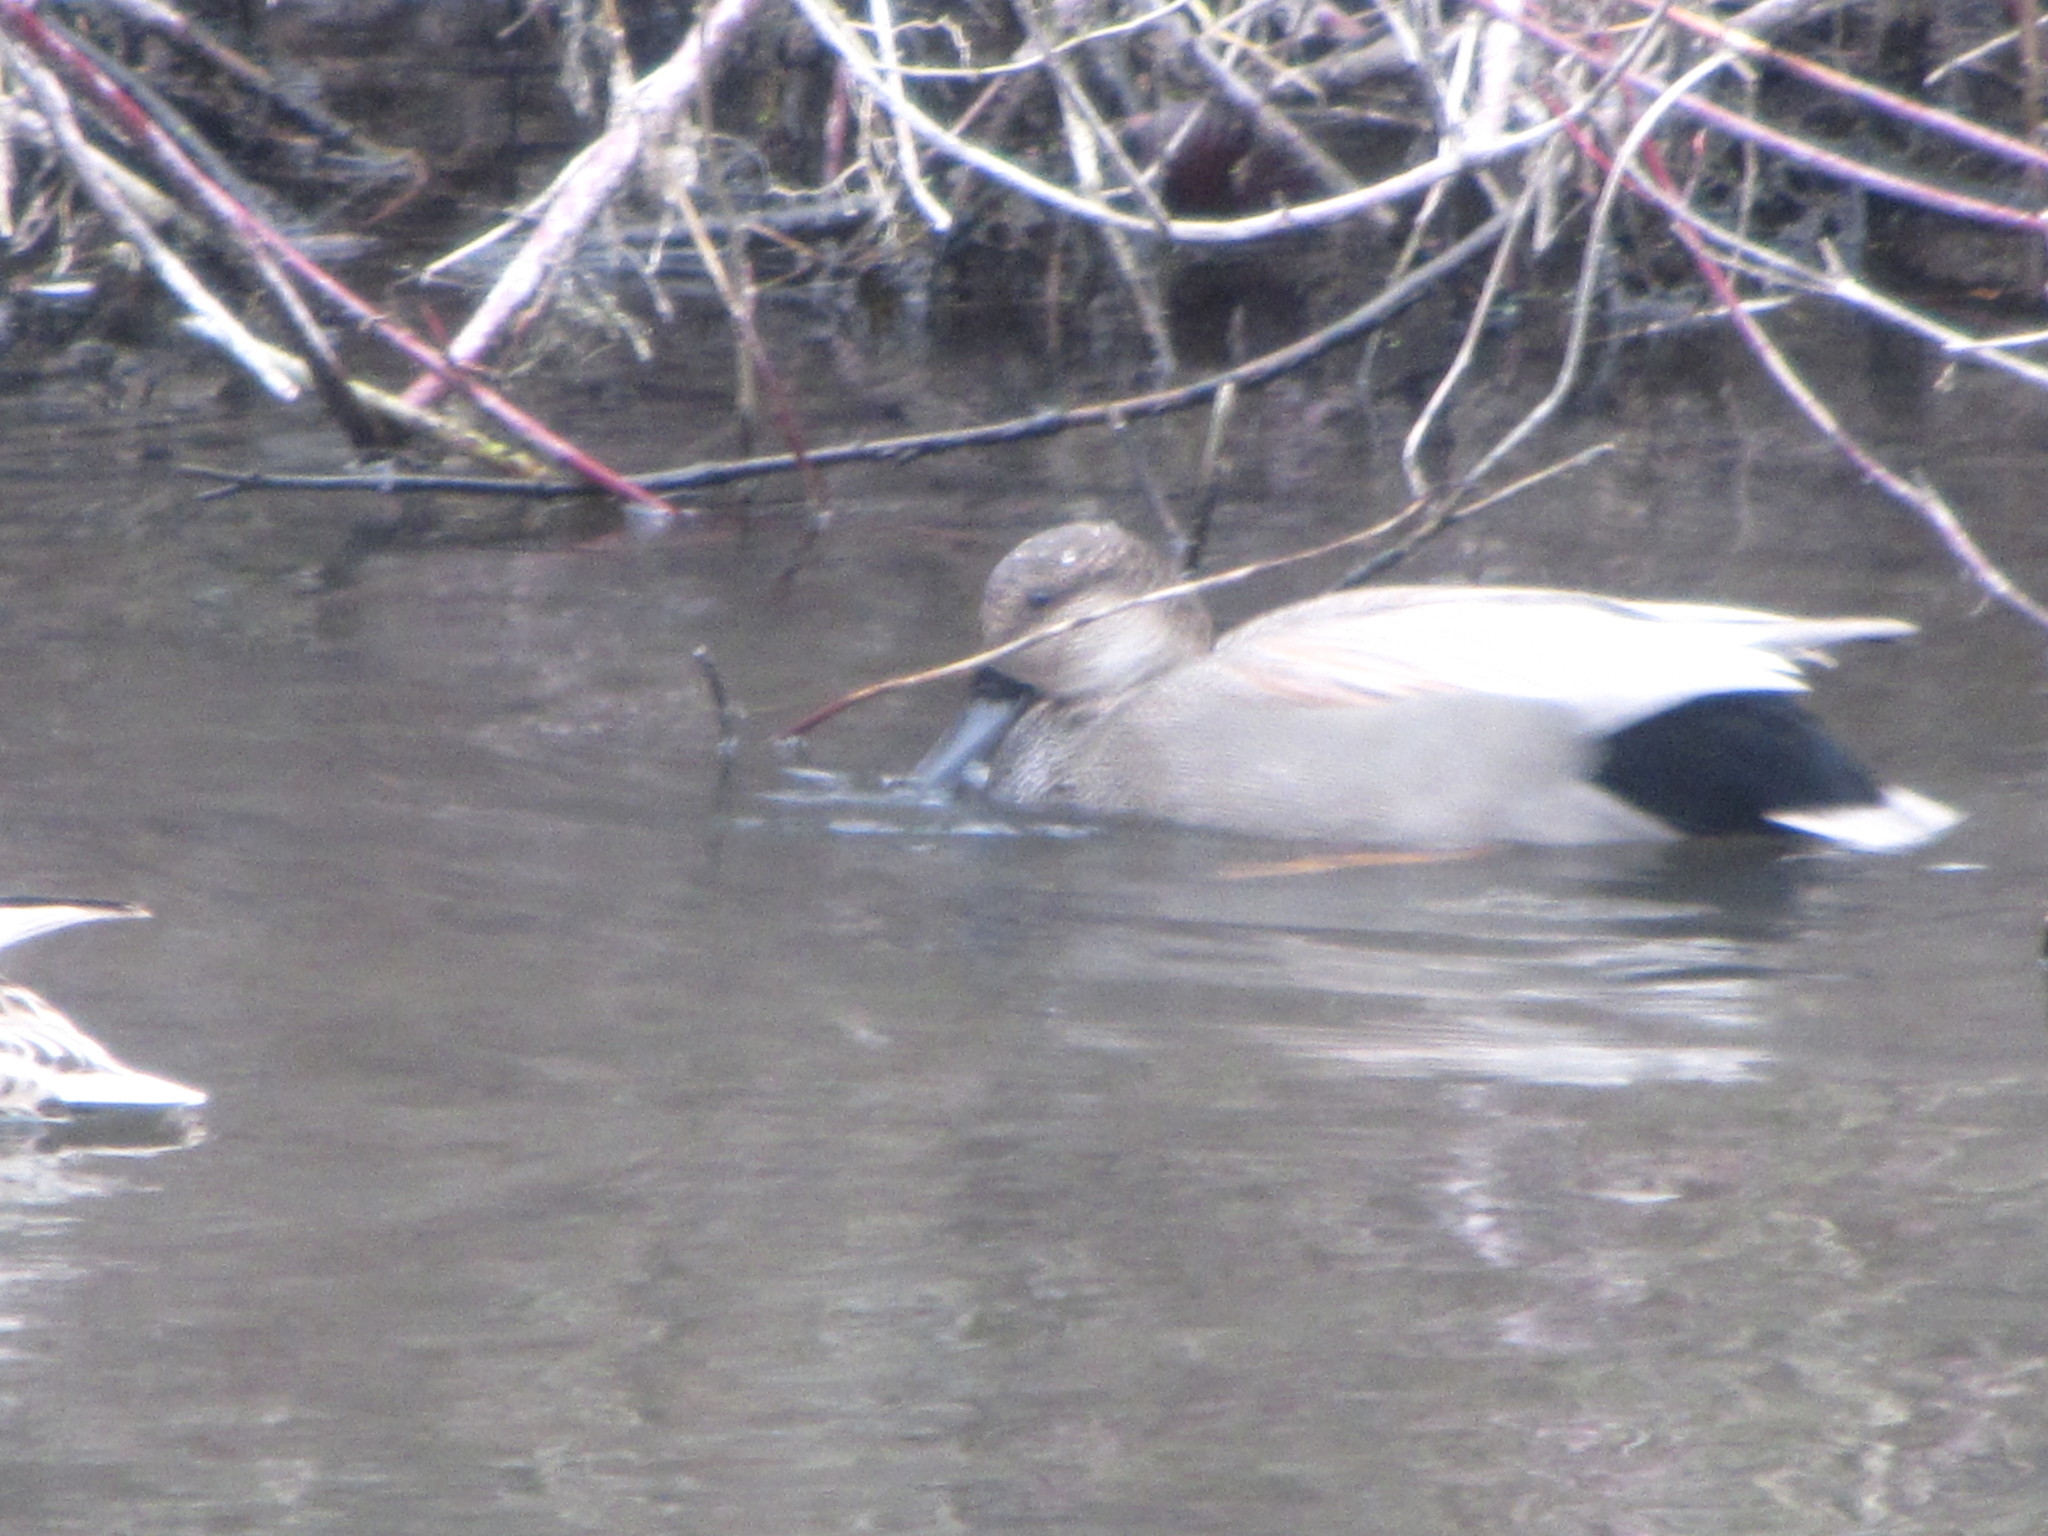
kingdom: Animalia
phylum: Chordata
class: Aves
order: Anseriformes
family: Anatidae
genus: Mareca
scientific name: Mareca strepera
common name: Gadwall
